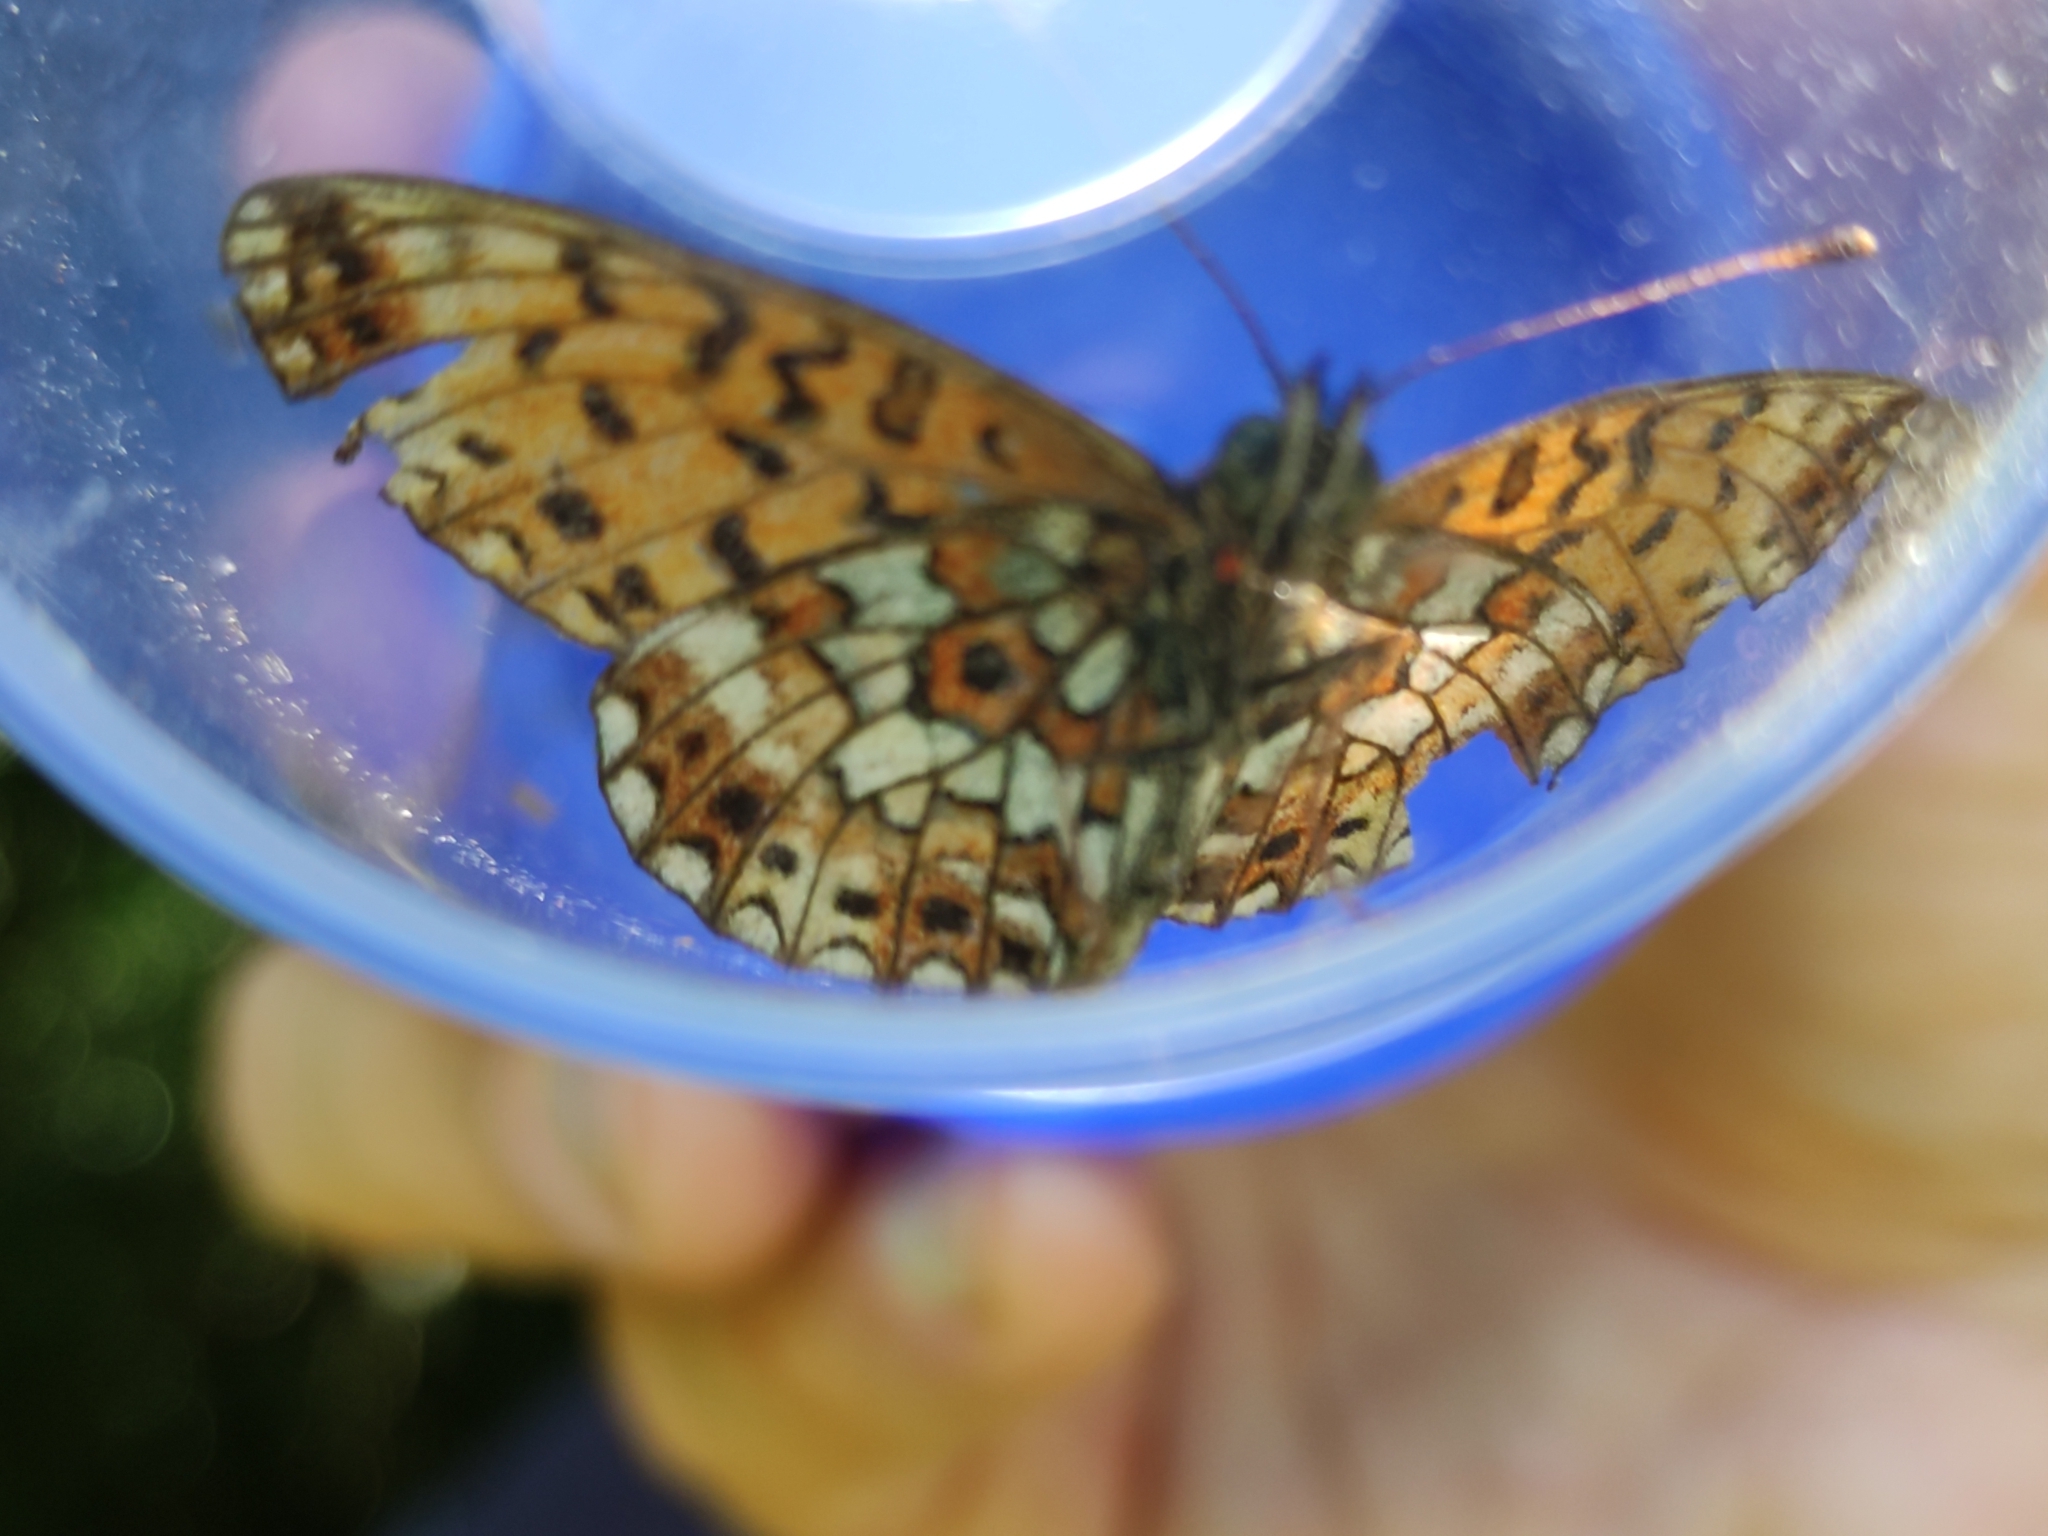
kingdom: Animalia
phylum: Arthropoda
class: Insecta
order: Lepidoptera
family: Nymphalidae
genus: Boloria
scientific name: Boloria selene
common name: Small pearl-bordered fritillary
